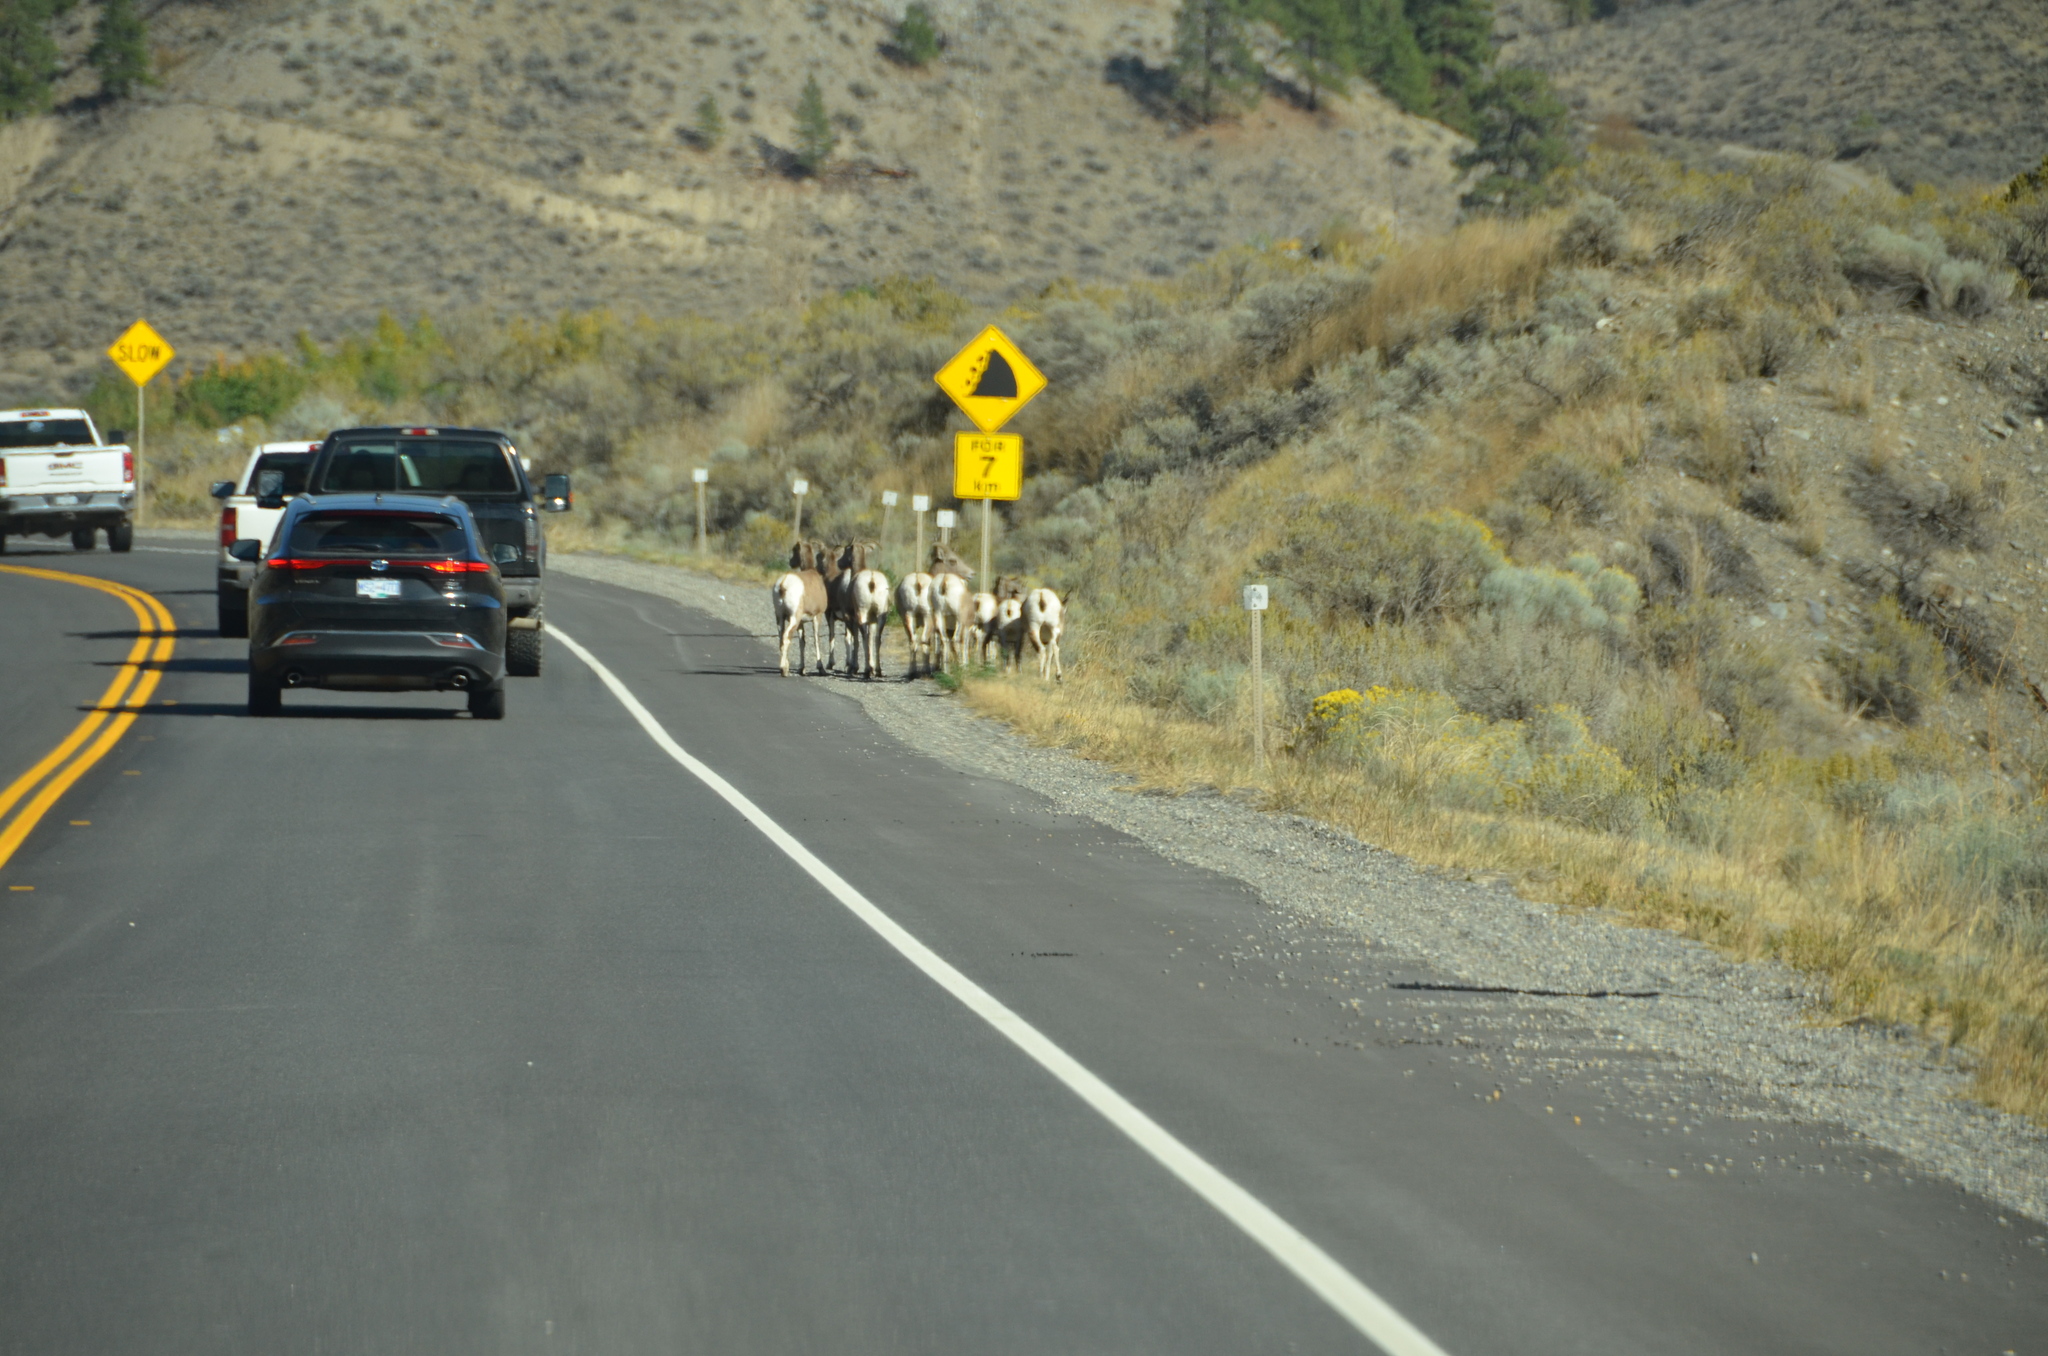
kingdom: Animalia
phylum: Chordata
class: Mammalia
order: Artiodactyla
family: Bovidae
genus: Ovis
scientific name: Ovis canadensis
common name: Bighorn sheep
